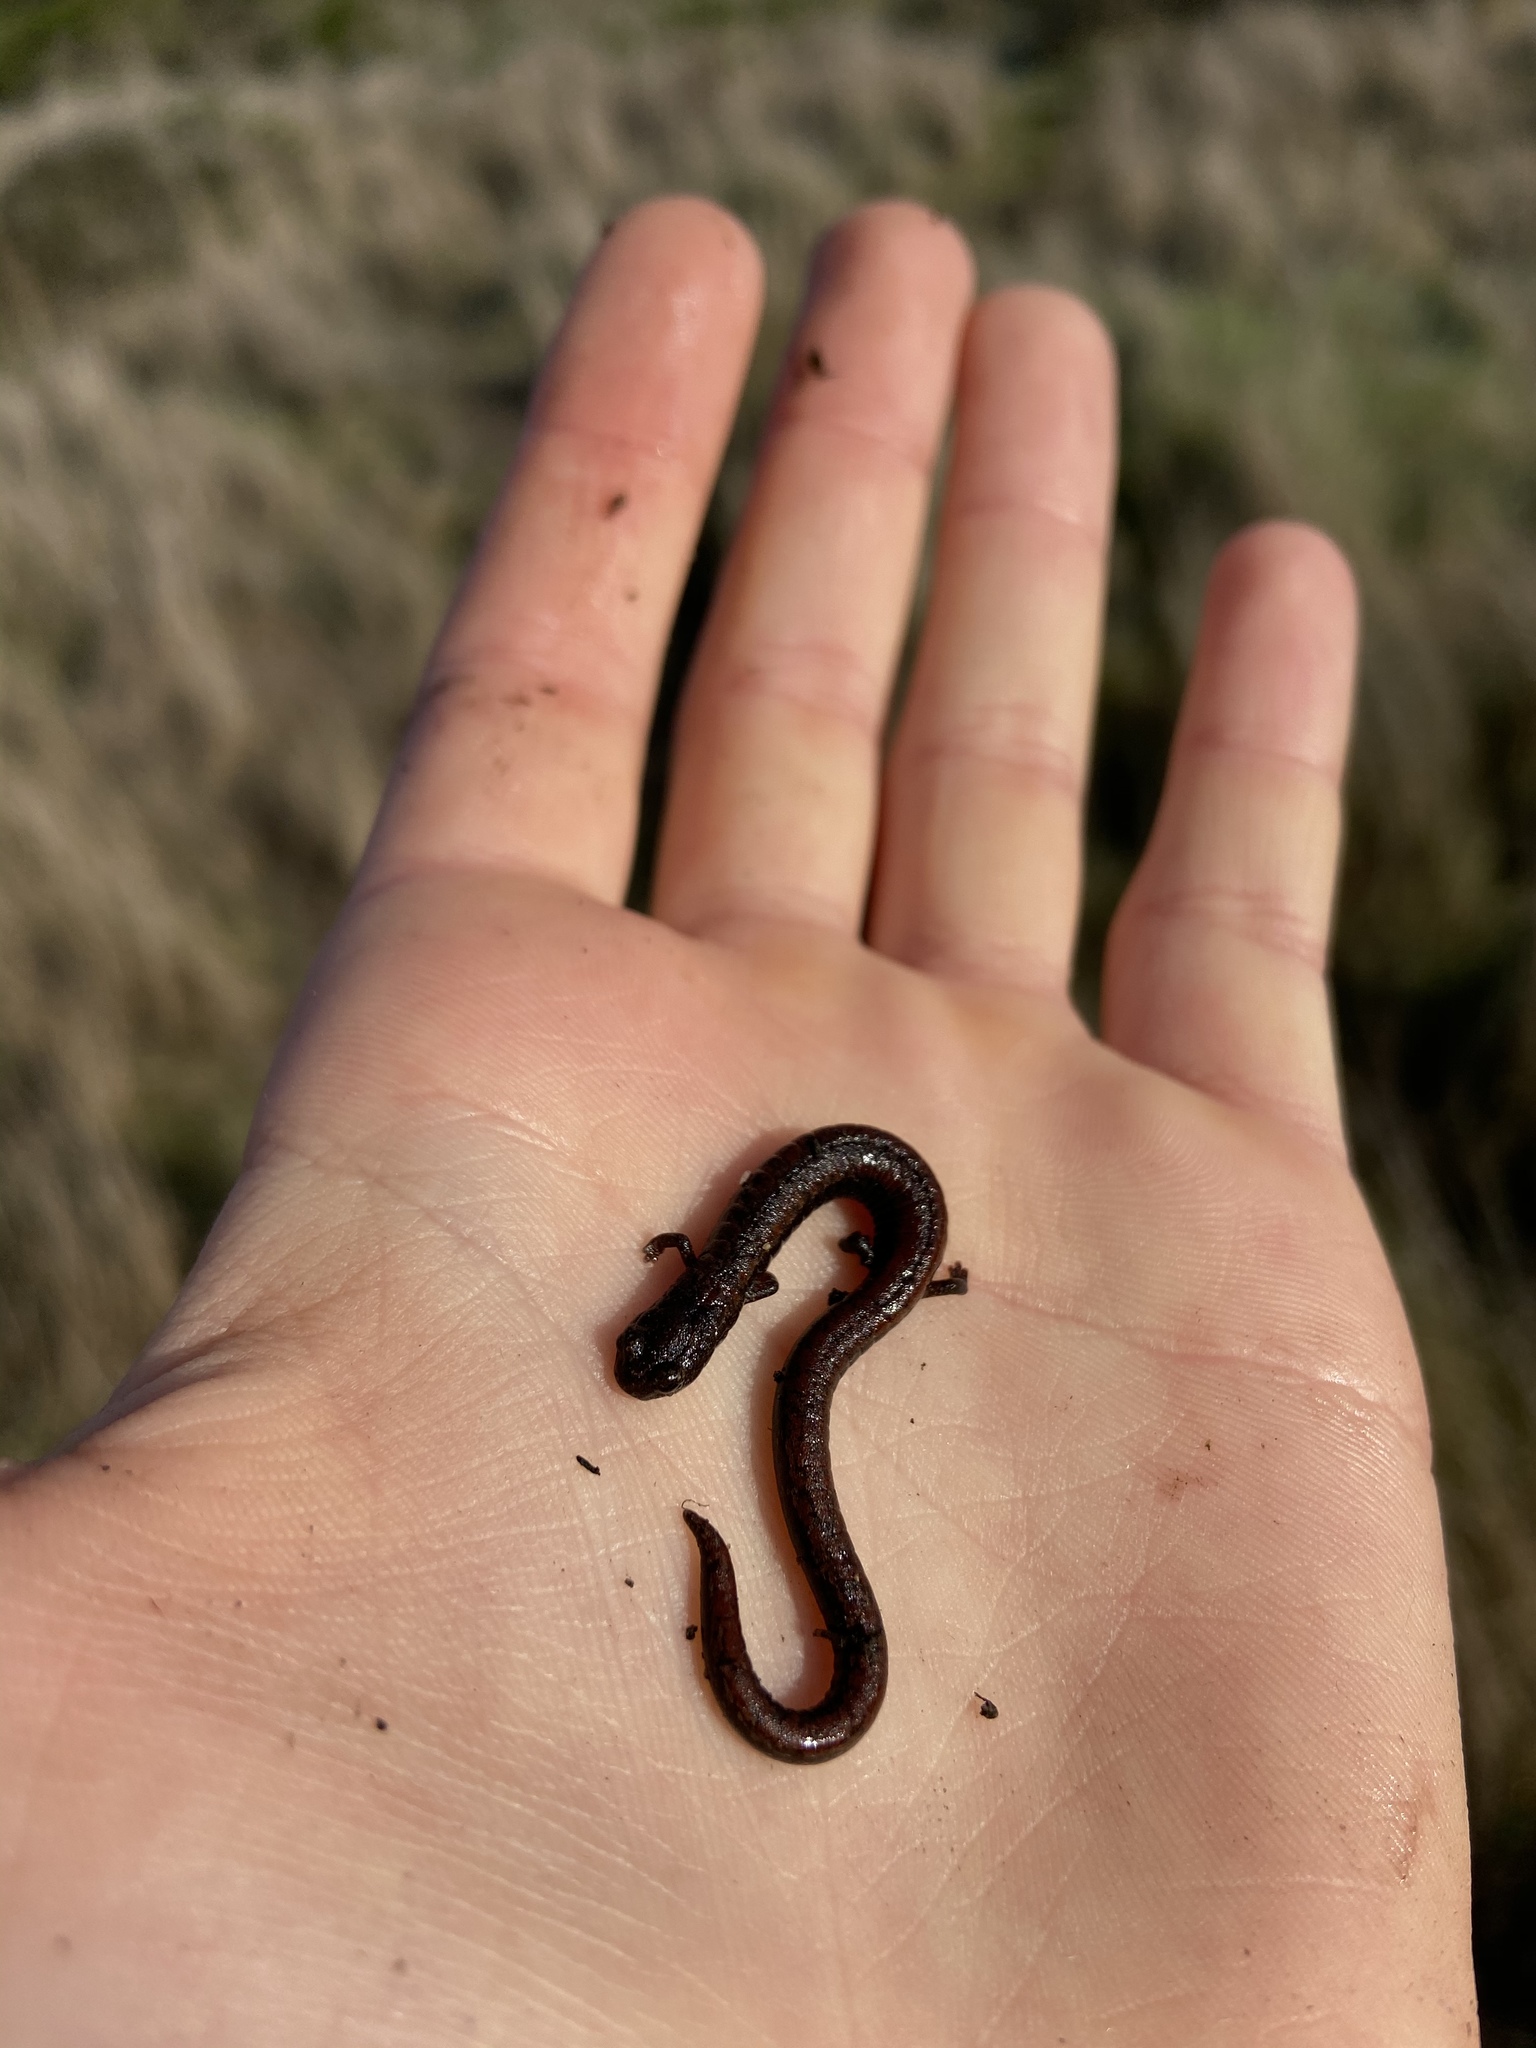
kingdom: Animalia
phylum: Chordata
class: Amphibia
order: Caudata
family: Plethodontidae
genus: Batrachoseps
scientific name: Batrachoseps attenuatus
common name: California slender salamander
